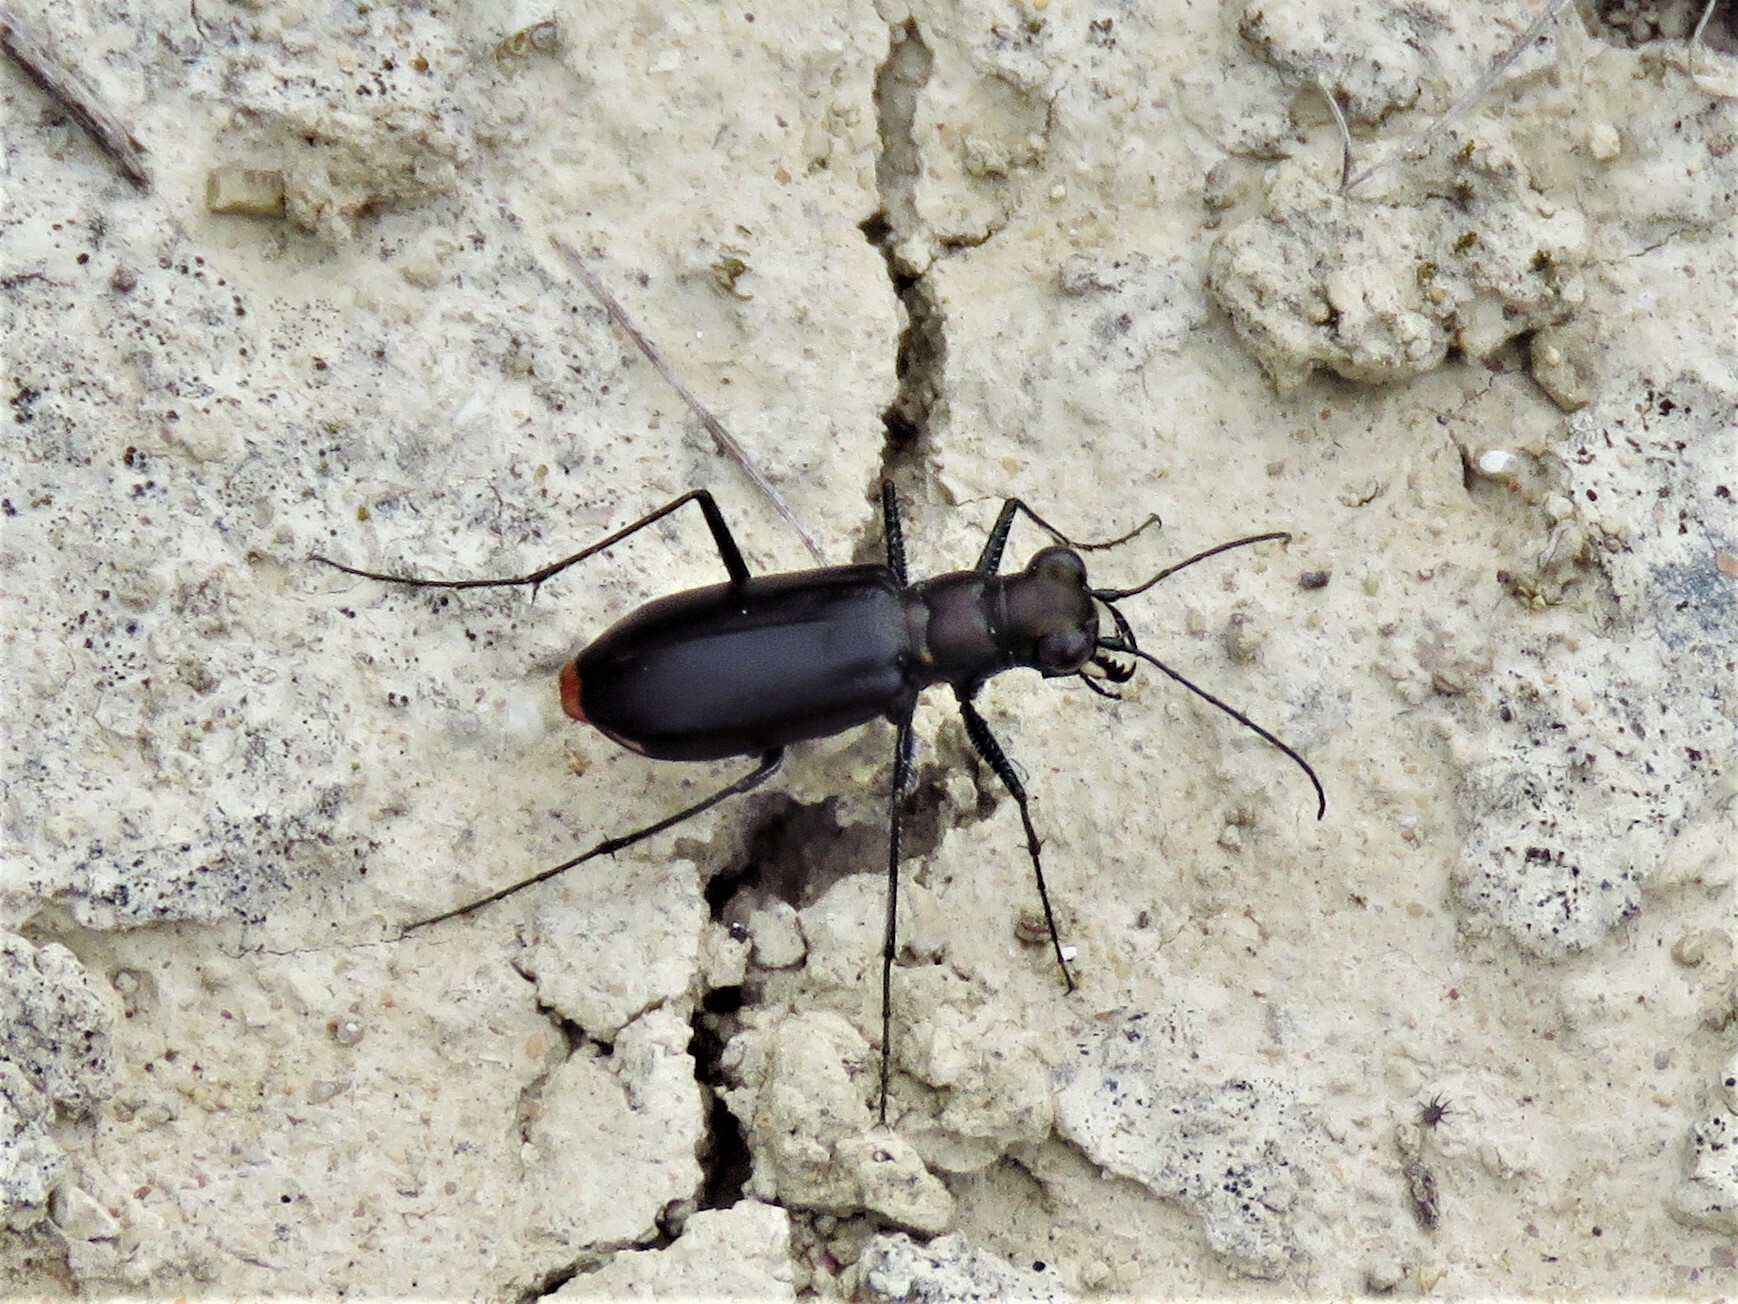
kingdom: Animalia
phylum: Arthropoda
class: Insecta
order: Coleoptera
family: Carabidae
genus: Cicindela
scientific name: Cicindela politula
